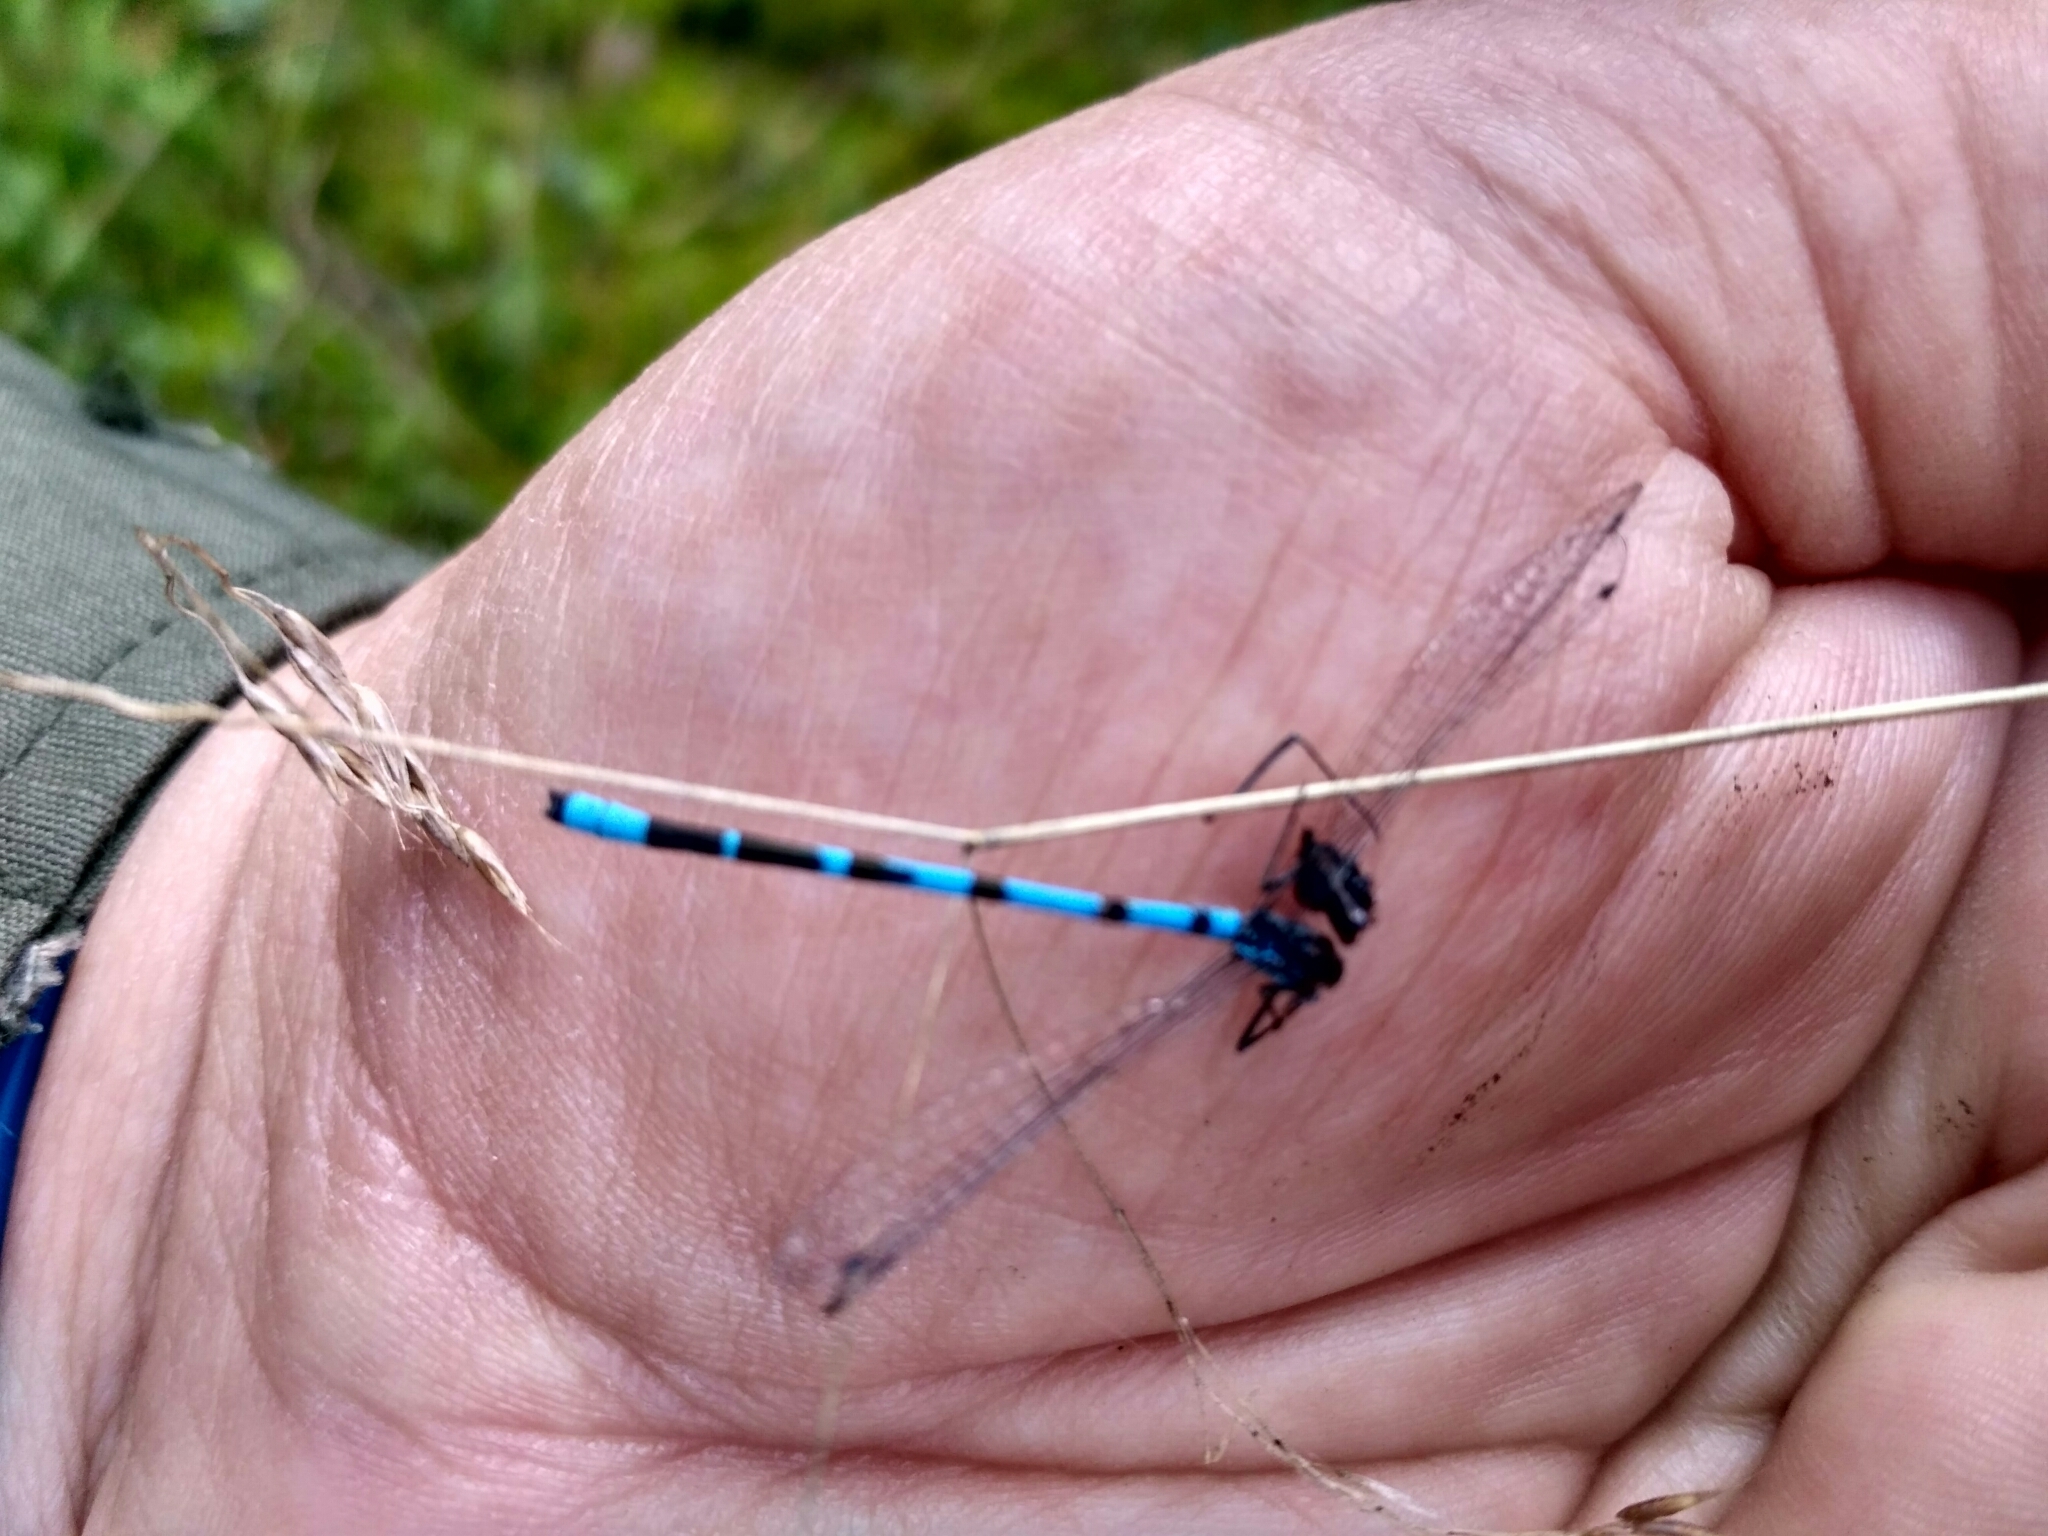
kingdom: Animalia
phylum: Arthropoda
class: Insecta
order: Odonata
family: Coenagrionidae
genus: Enallagma
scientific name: Enallagma cyathigerum
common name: Common blue damselfly
